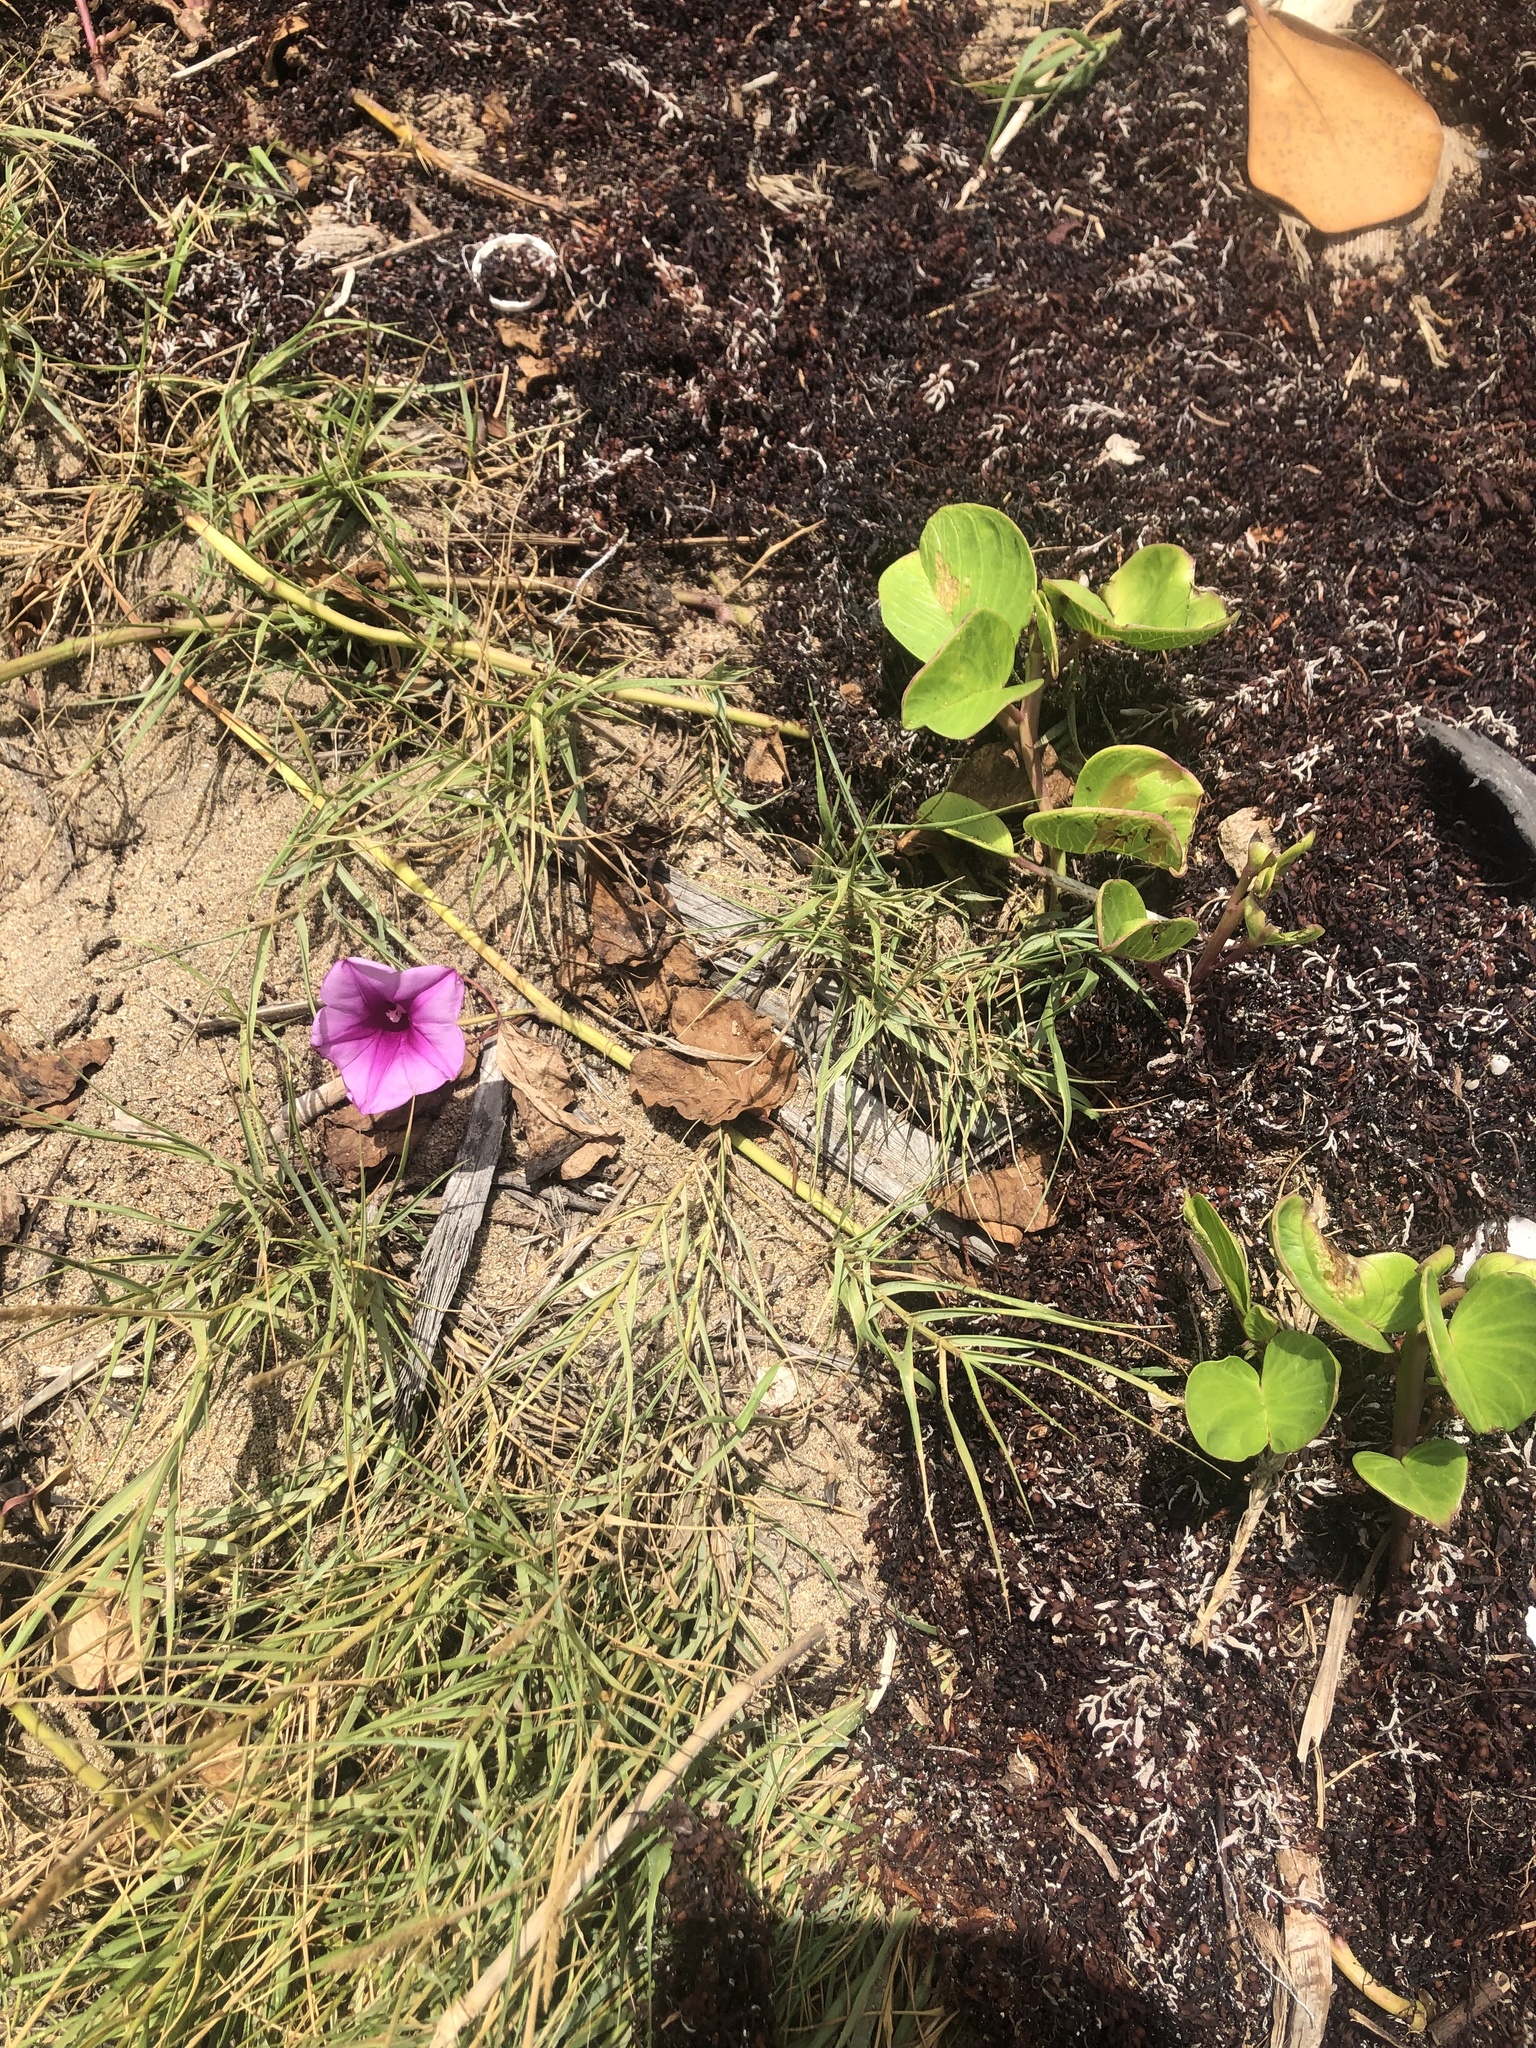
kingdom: Plantae
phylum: Tracheophyta
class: Magnoliopsida
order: Solanales
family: Convolvulaceae
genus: Ipomoea
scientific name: Ipomoea pes-caprae
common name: Beach morning glory
